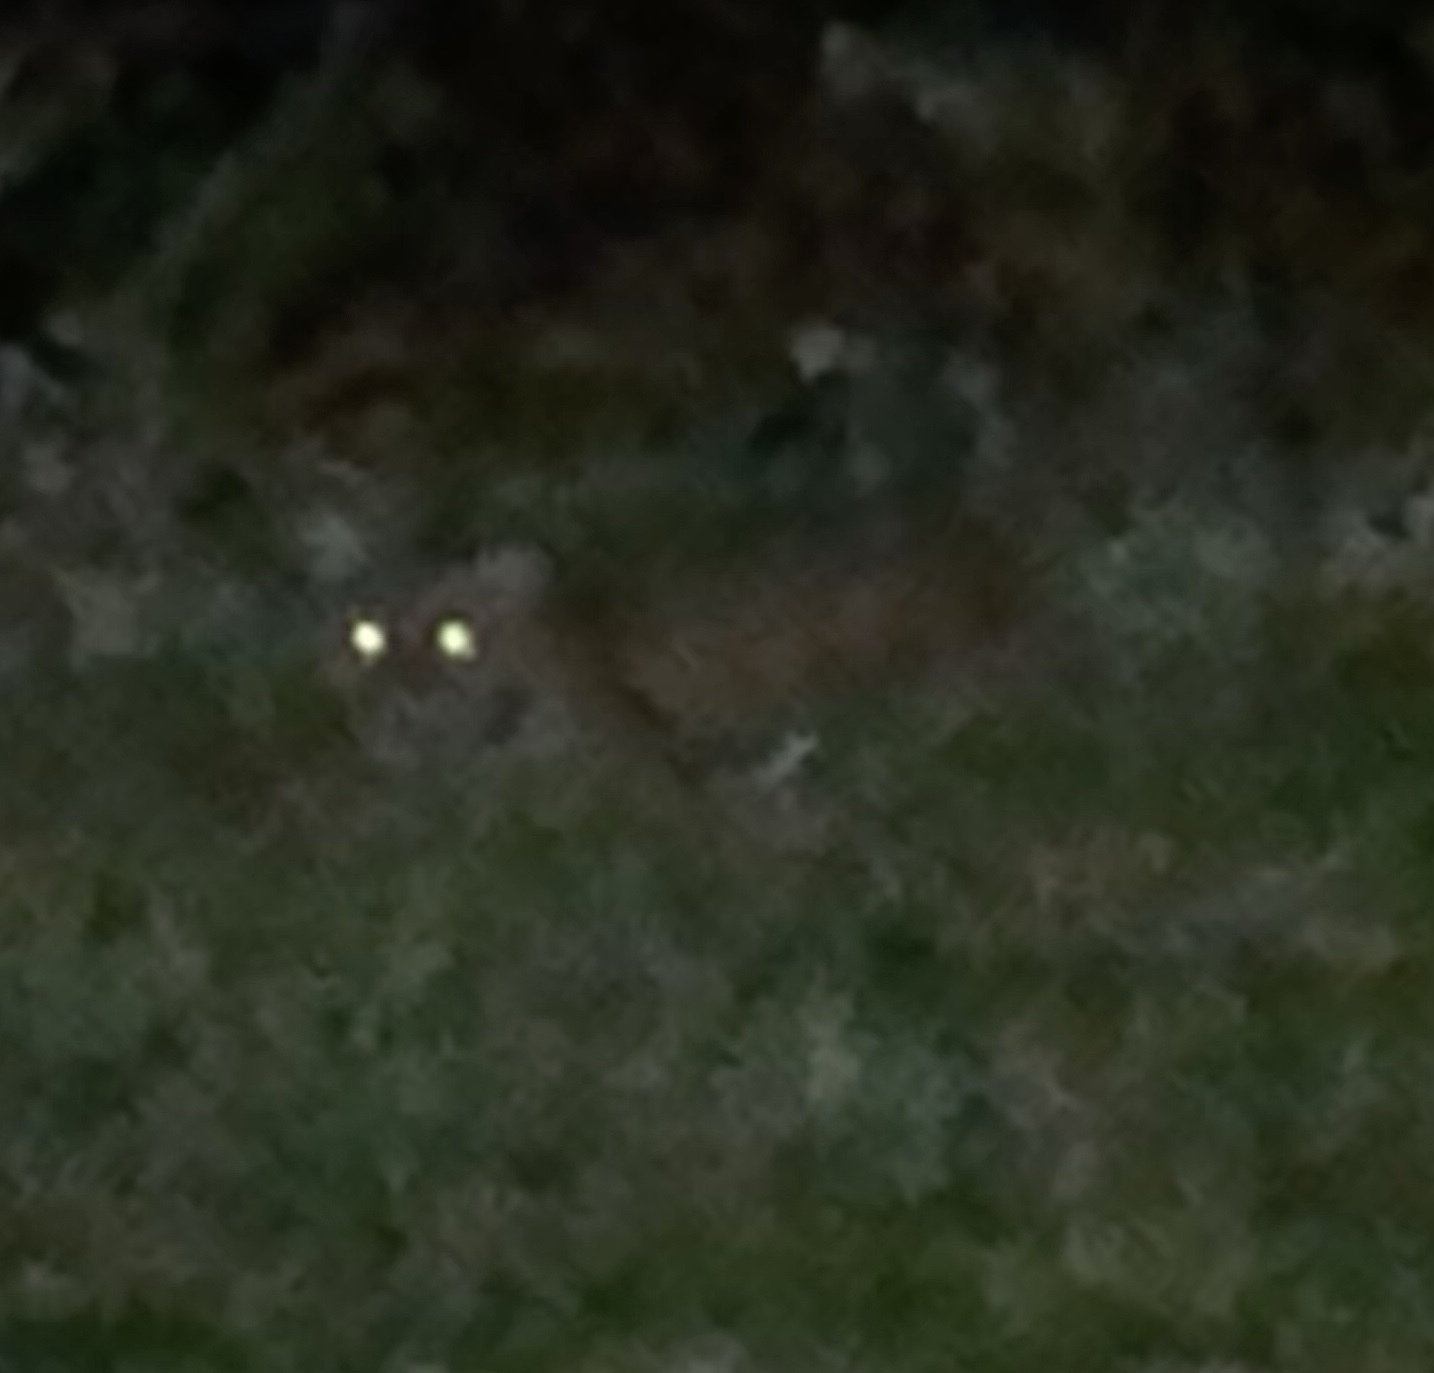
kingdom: Animalia
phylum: Chordata
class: Mammalia
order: Carnivora
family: Felidae
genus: Lynx
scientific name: Lynx rufus
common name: Bobcat
